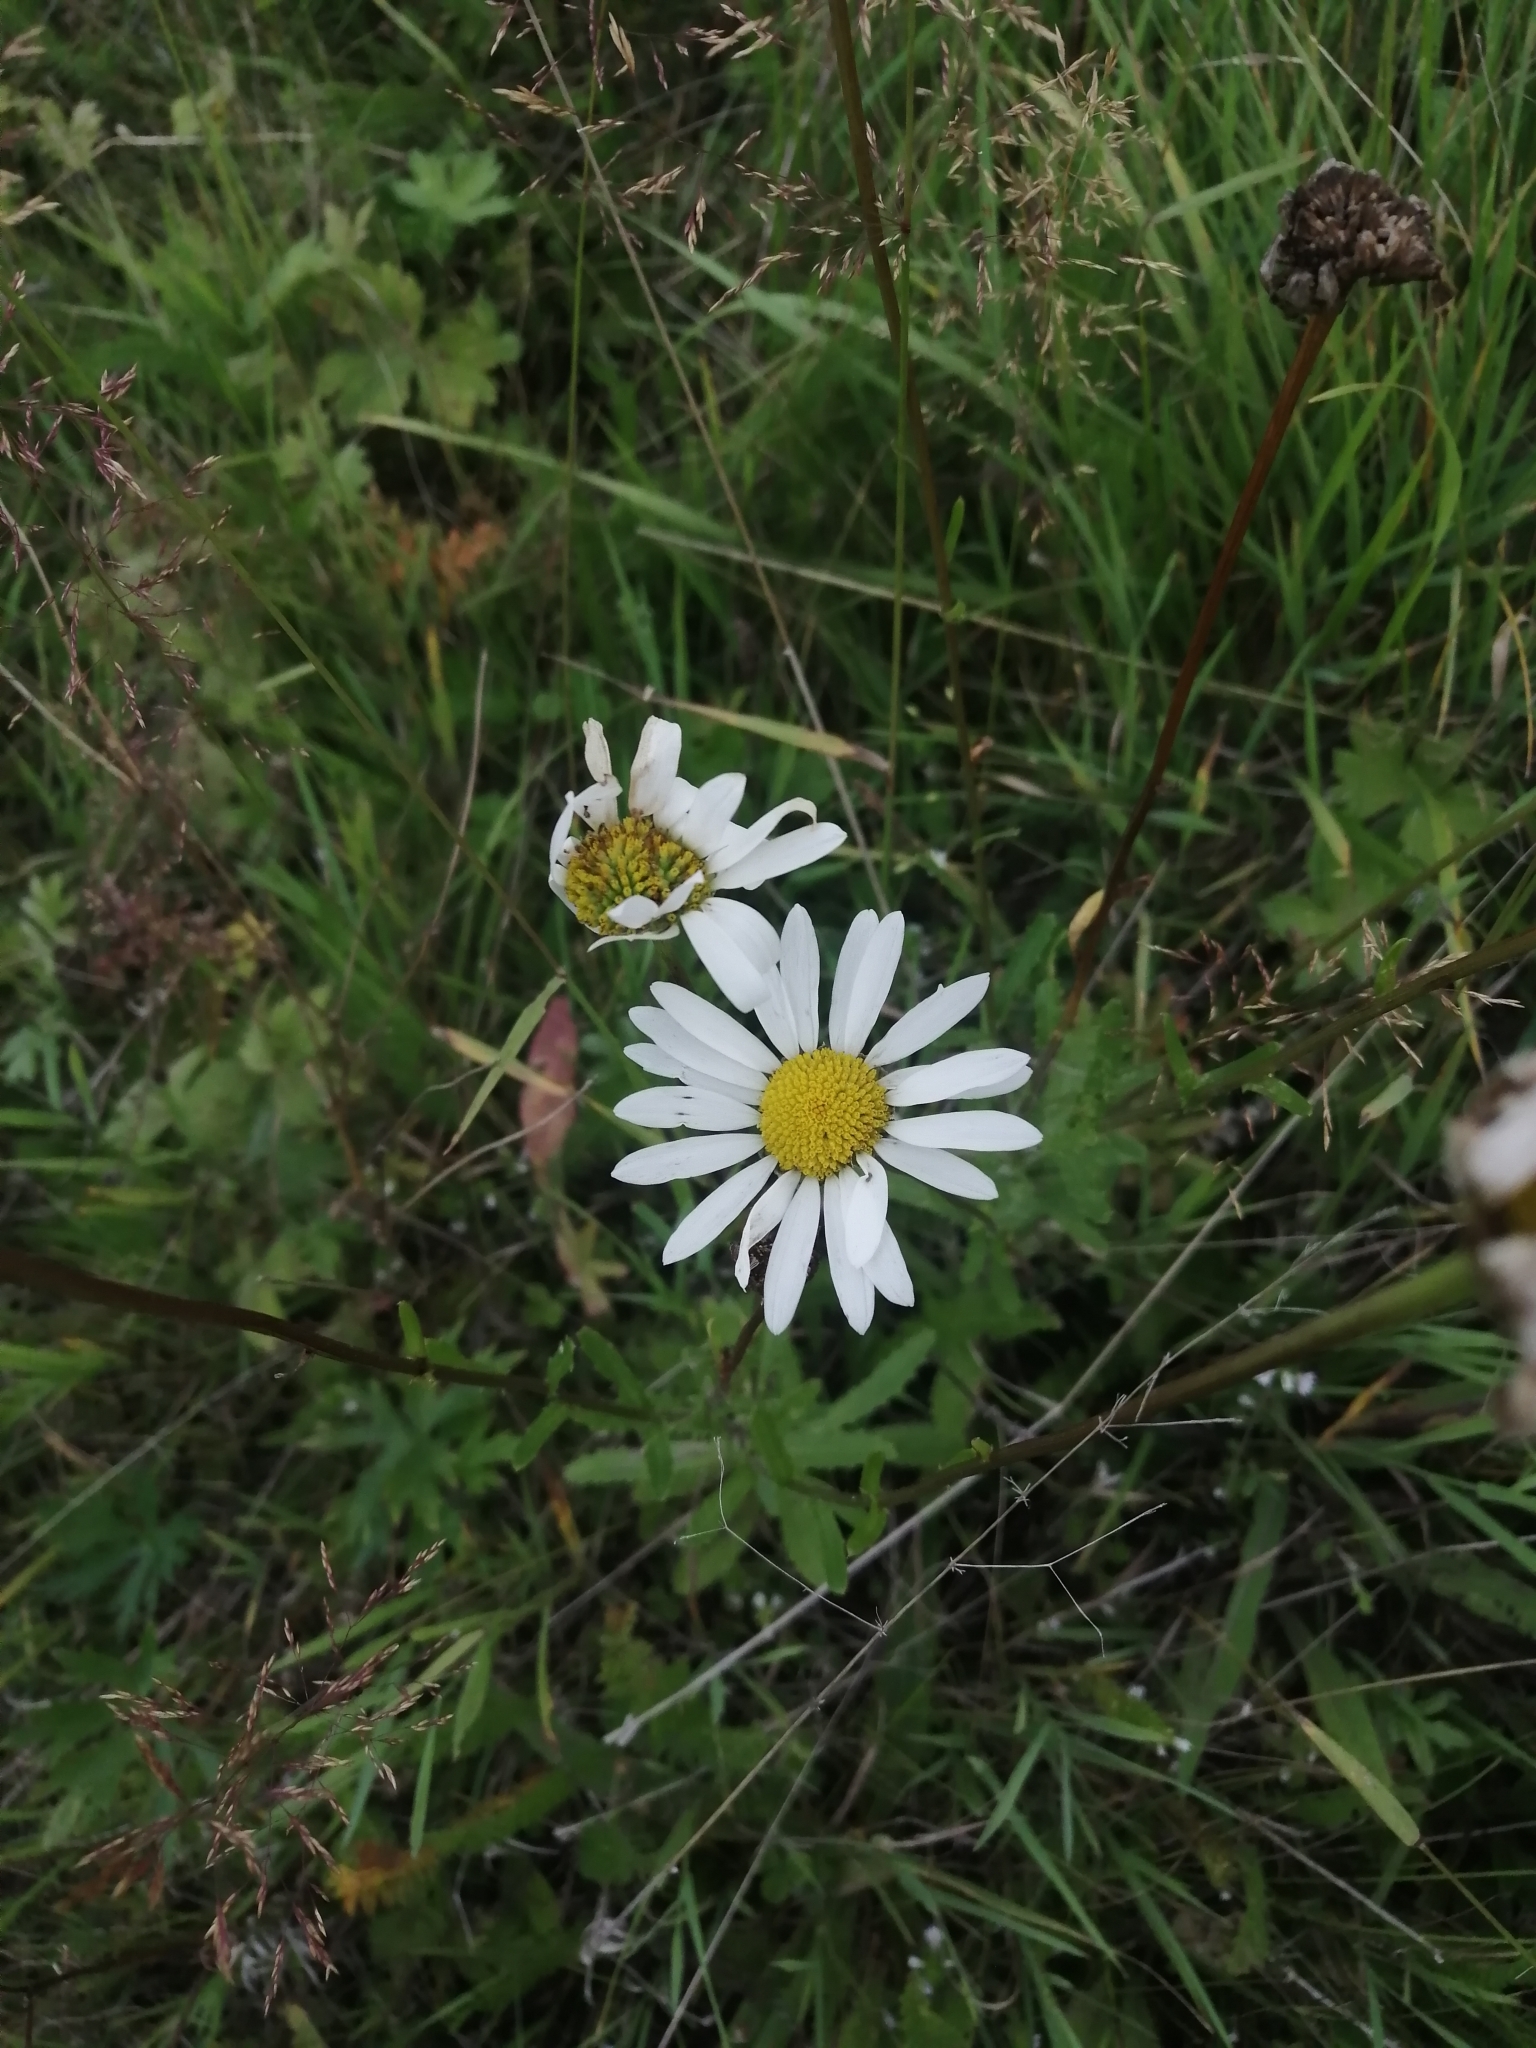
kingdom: Plantae
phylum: Tracheophyta
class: Magnoliopsida
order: Asterales
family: Asteraceae
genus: Leucanthemum
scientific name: Leucanthemum ircutianum
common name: Daisy
